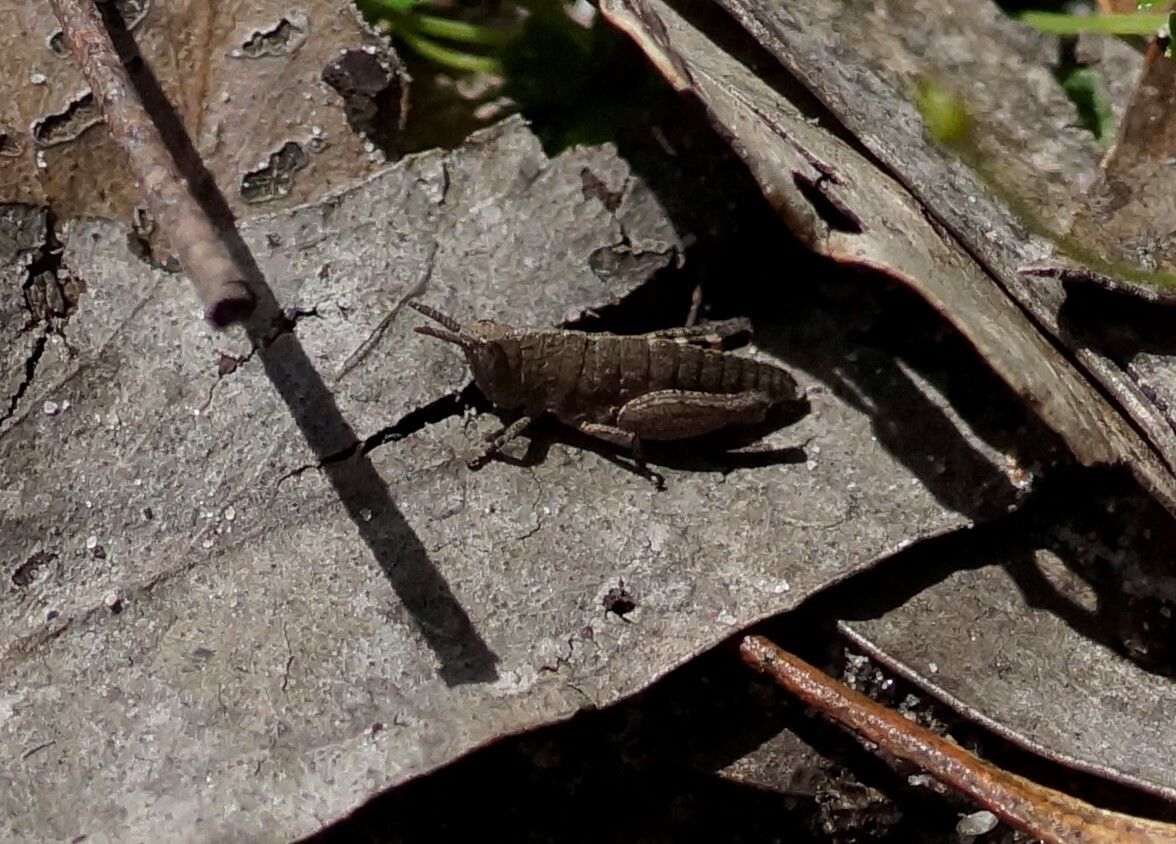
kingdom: Animalia
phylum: Arthropoda
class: Insecta
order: Orthoptera
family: Acrididae
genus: Goniaea
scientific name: Goniaea opomaloides
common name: Mimetic gumleaf grasshopper
